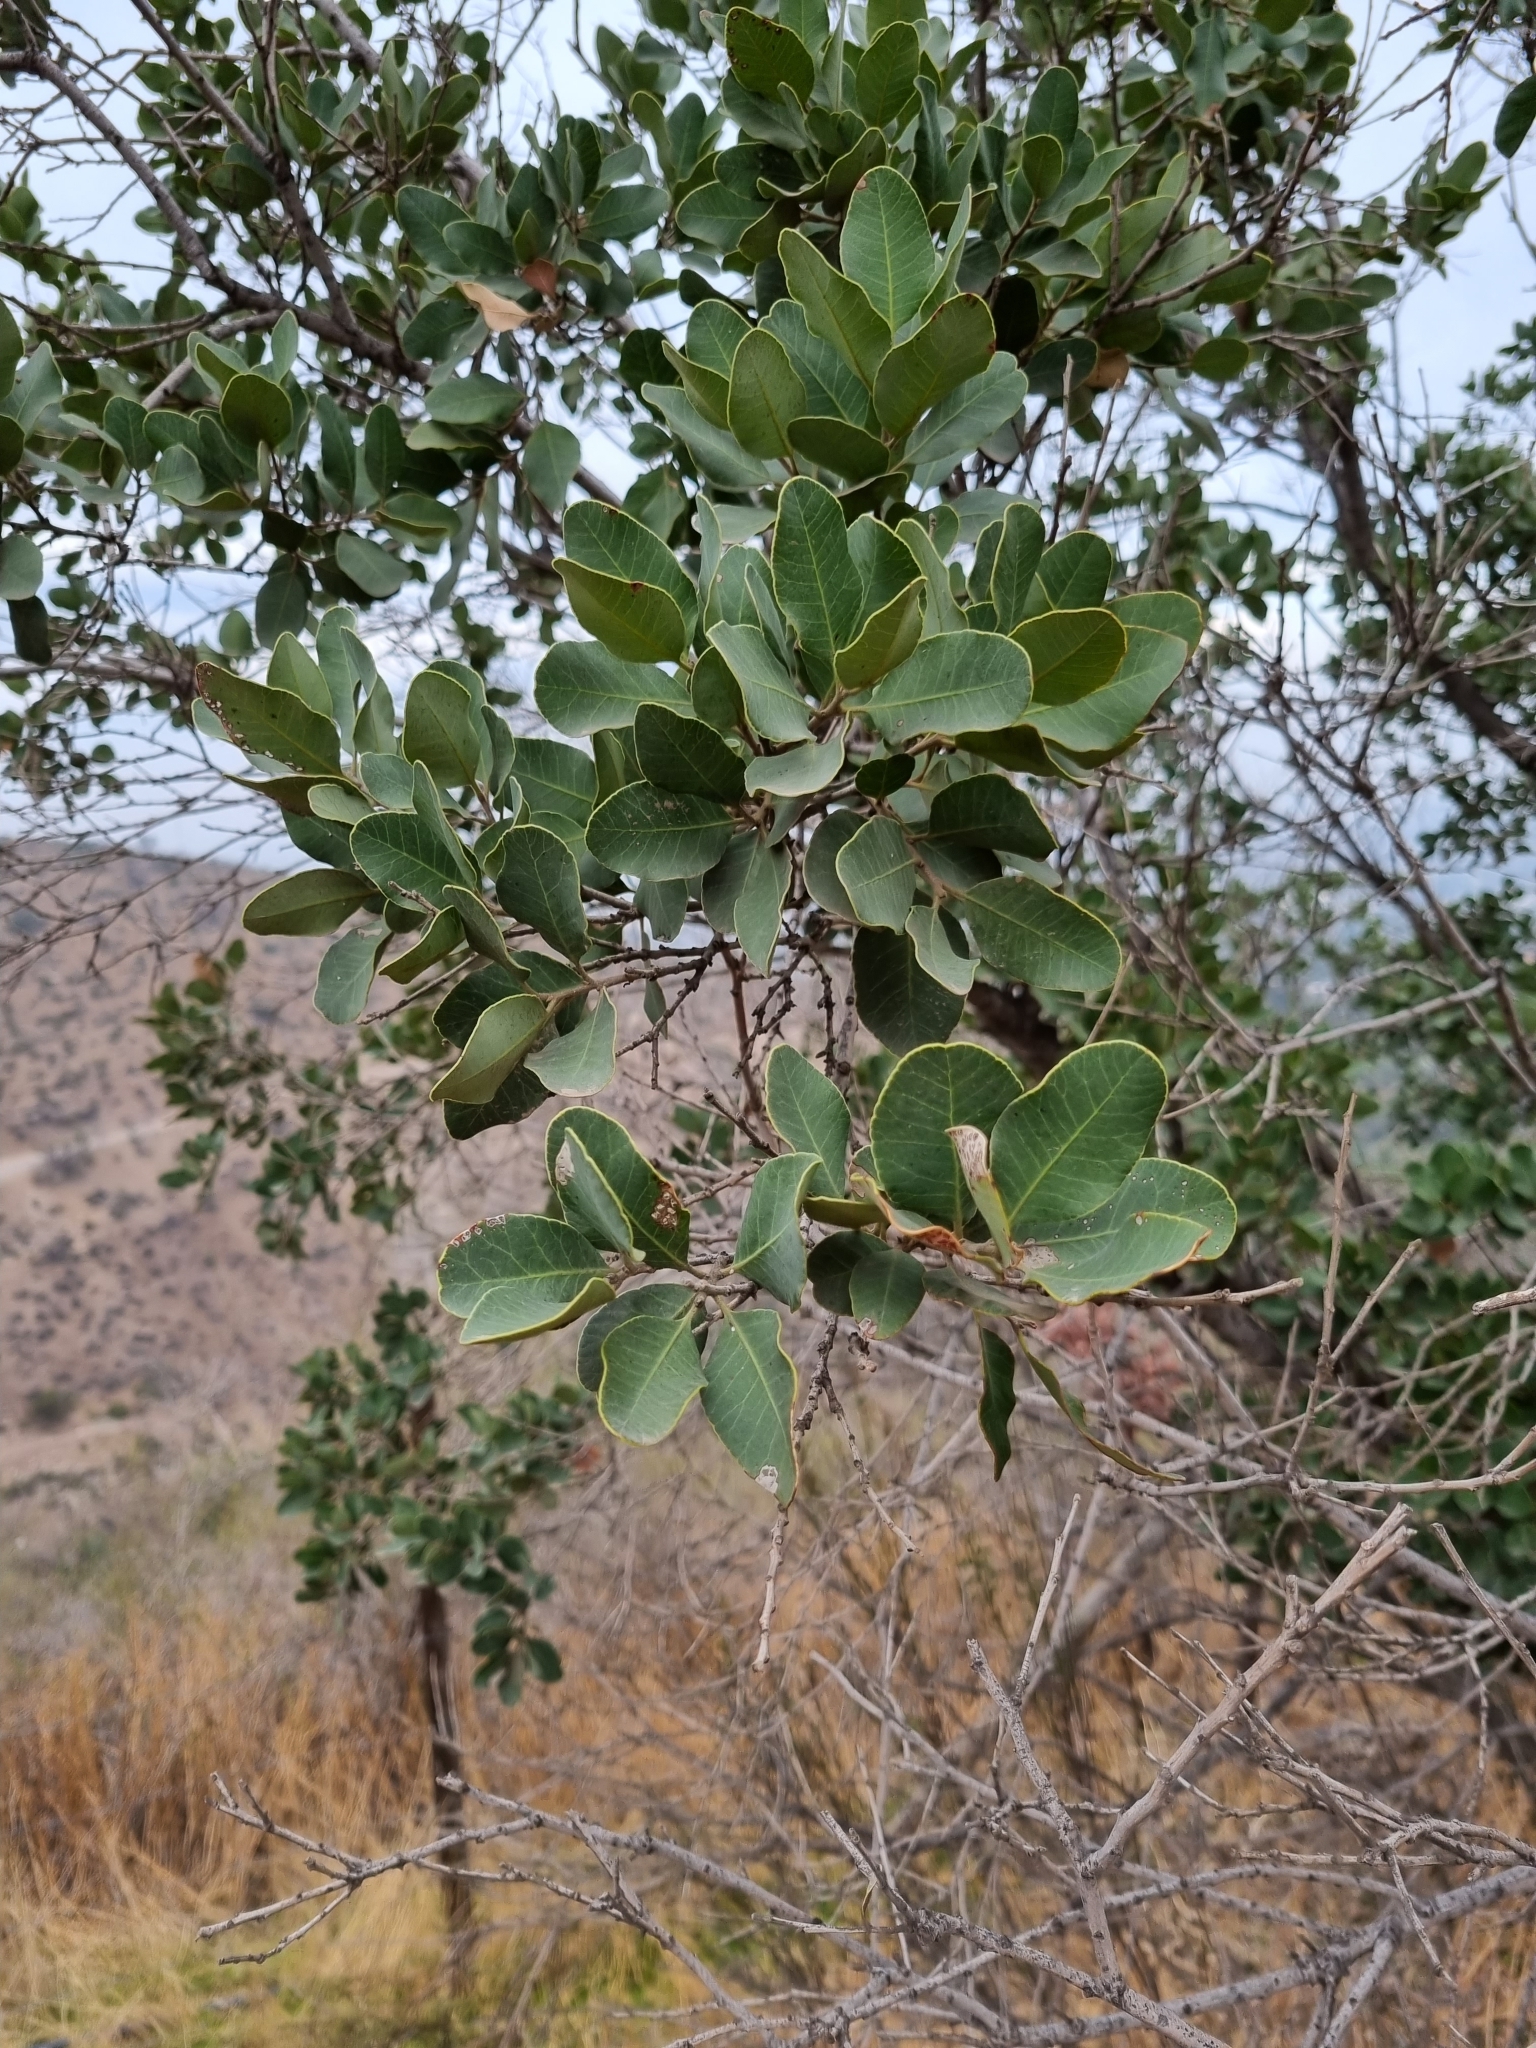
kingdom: Plantae
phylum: Tracheophyta
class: Magnoliopsida
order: Sapindales
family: Anacardiaceae
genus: Lithraea
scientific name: Lithraea caustica
